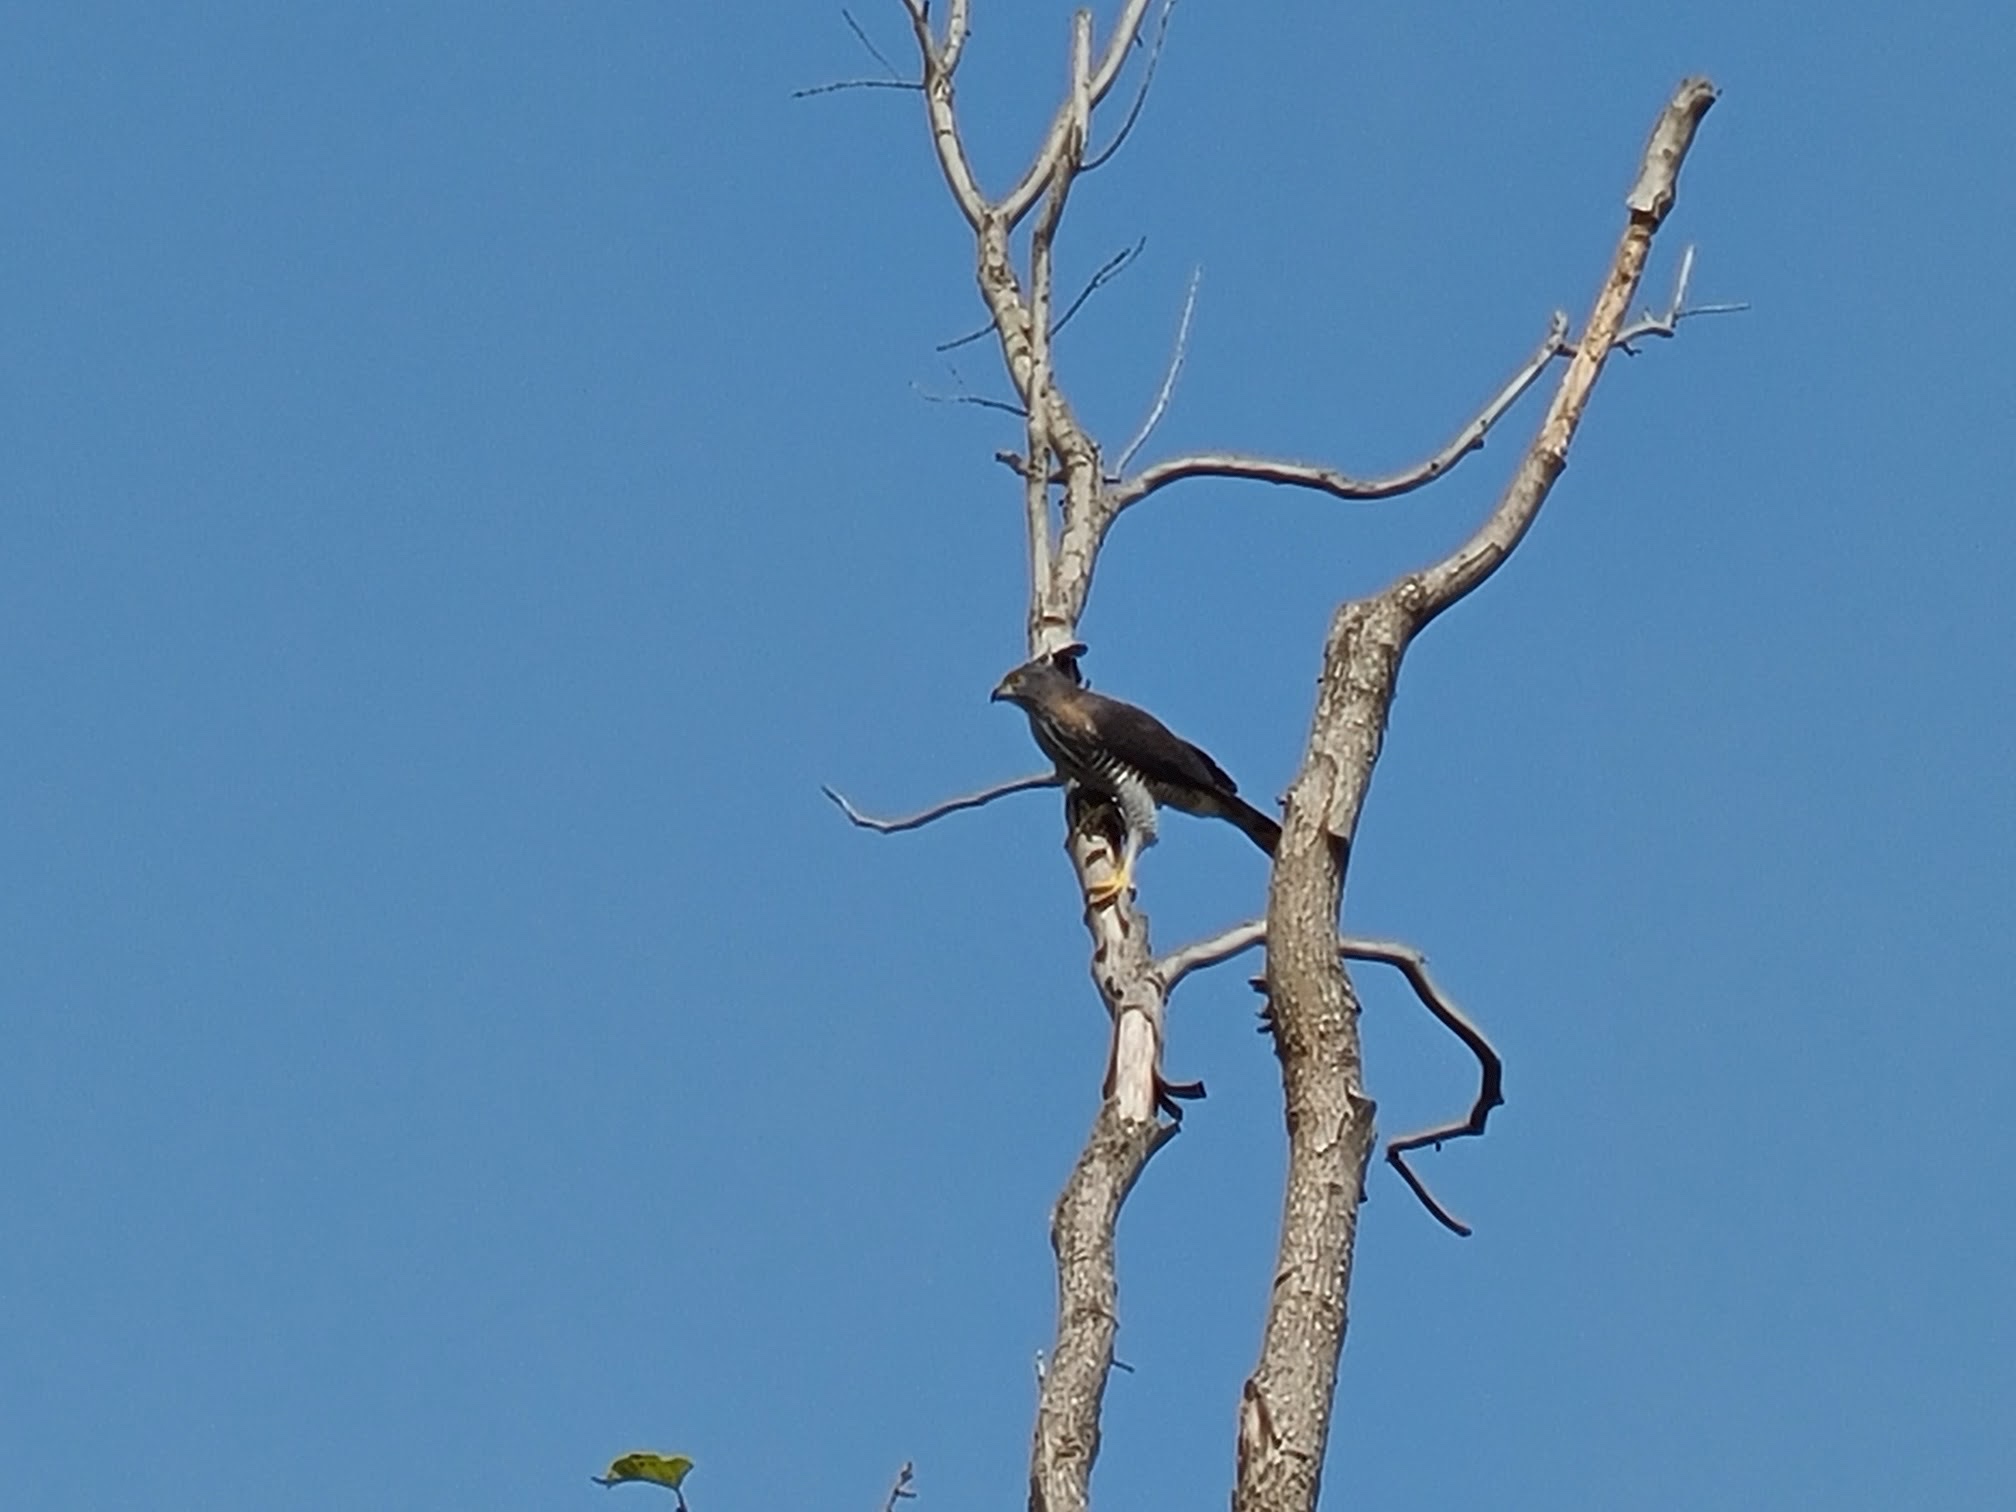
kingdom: Animalia
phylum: Chordata
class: Aves
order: Accipitriformes
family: Accipitridae
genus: Accipiter
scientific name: Accipiter trivirgatus
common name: Crested goshawk
